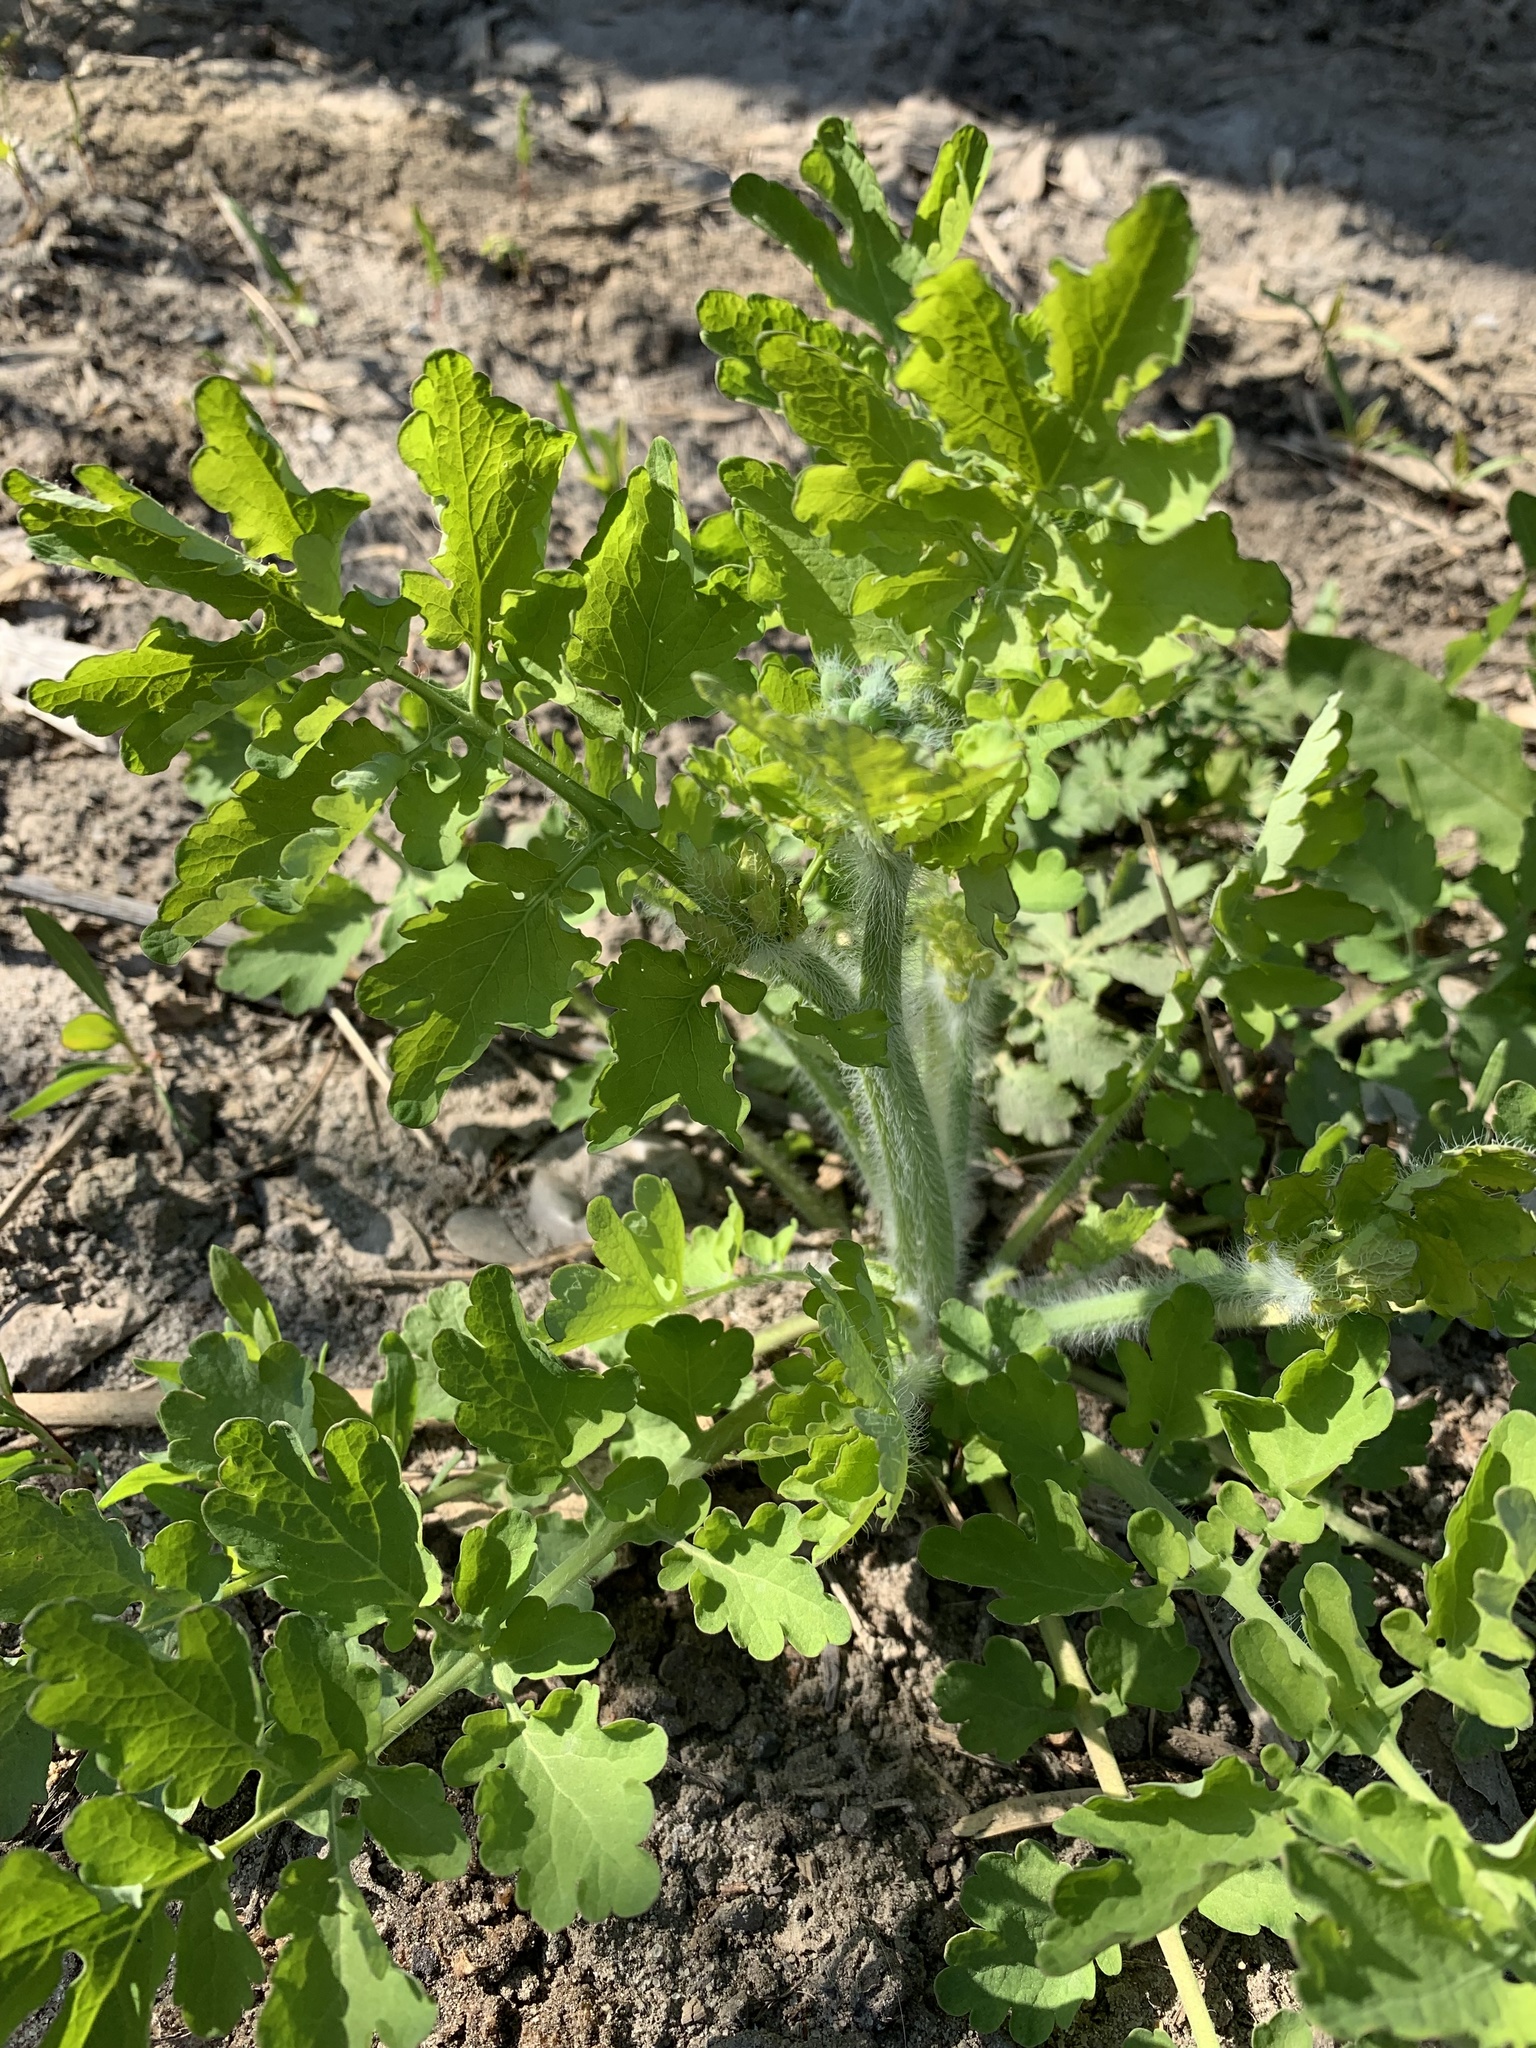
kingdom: Plantae
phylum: Tracheophyta
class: Magnoliopsida
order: Ranunculales
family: Papaveraceae
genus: Chelidonium
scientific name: Chelidonium majus
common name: Greater celandine
